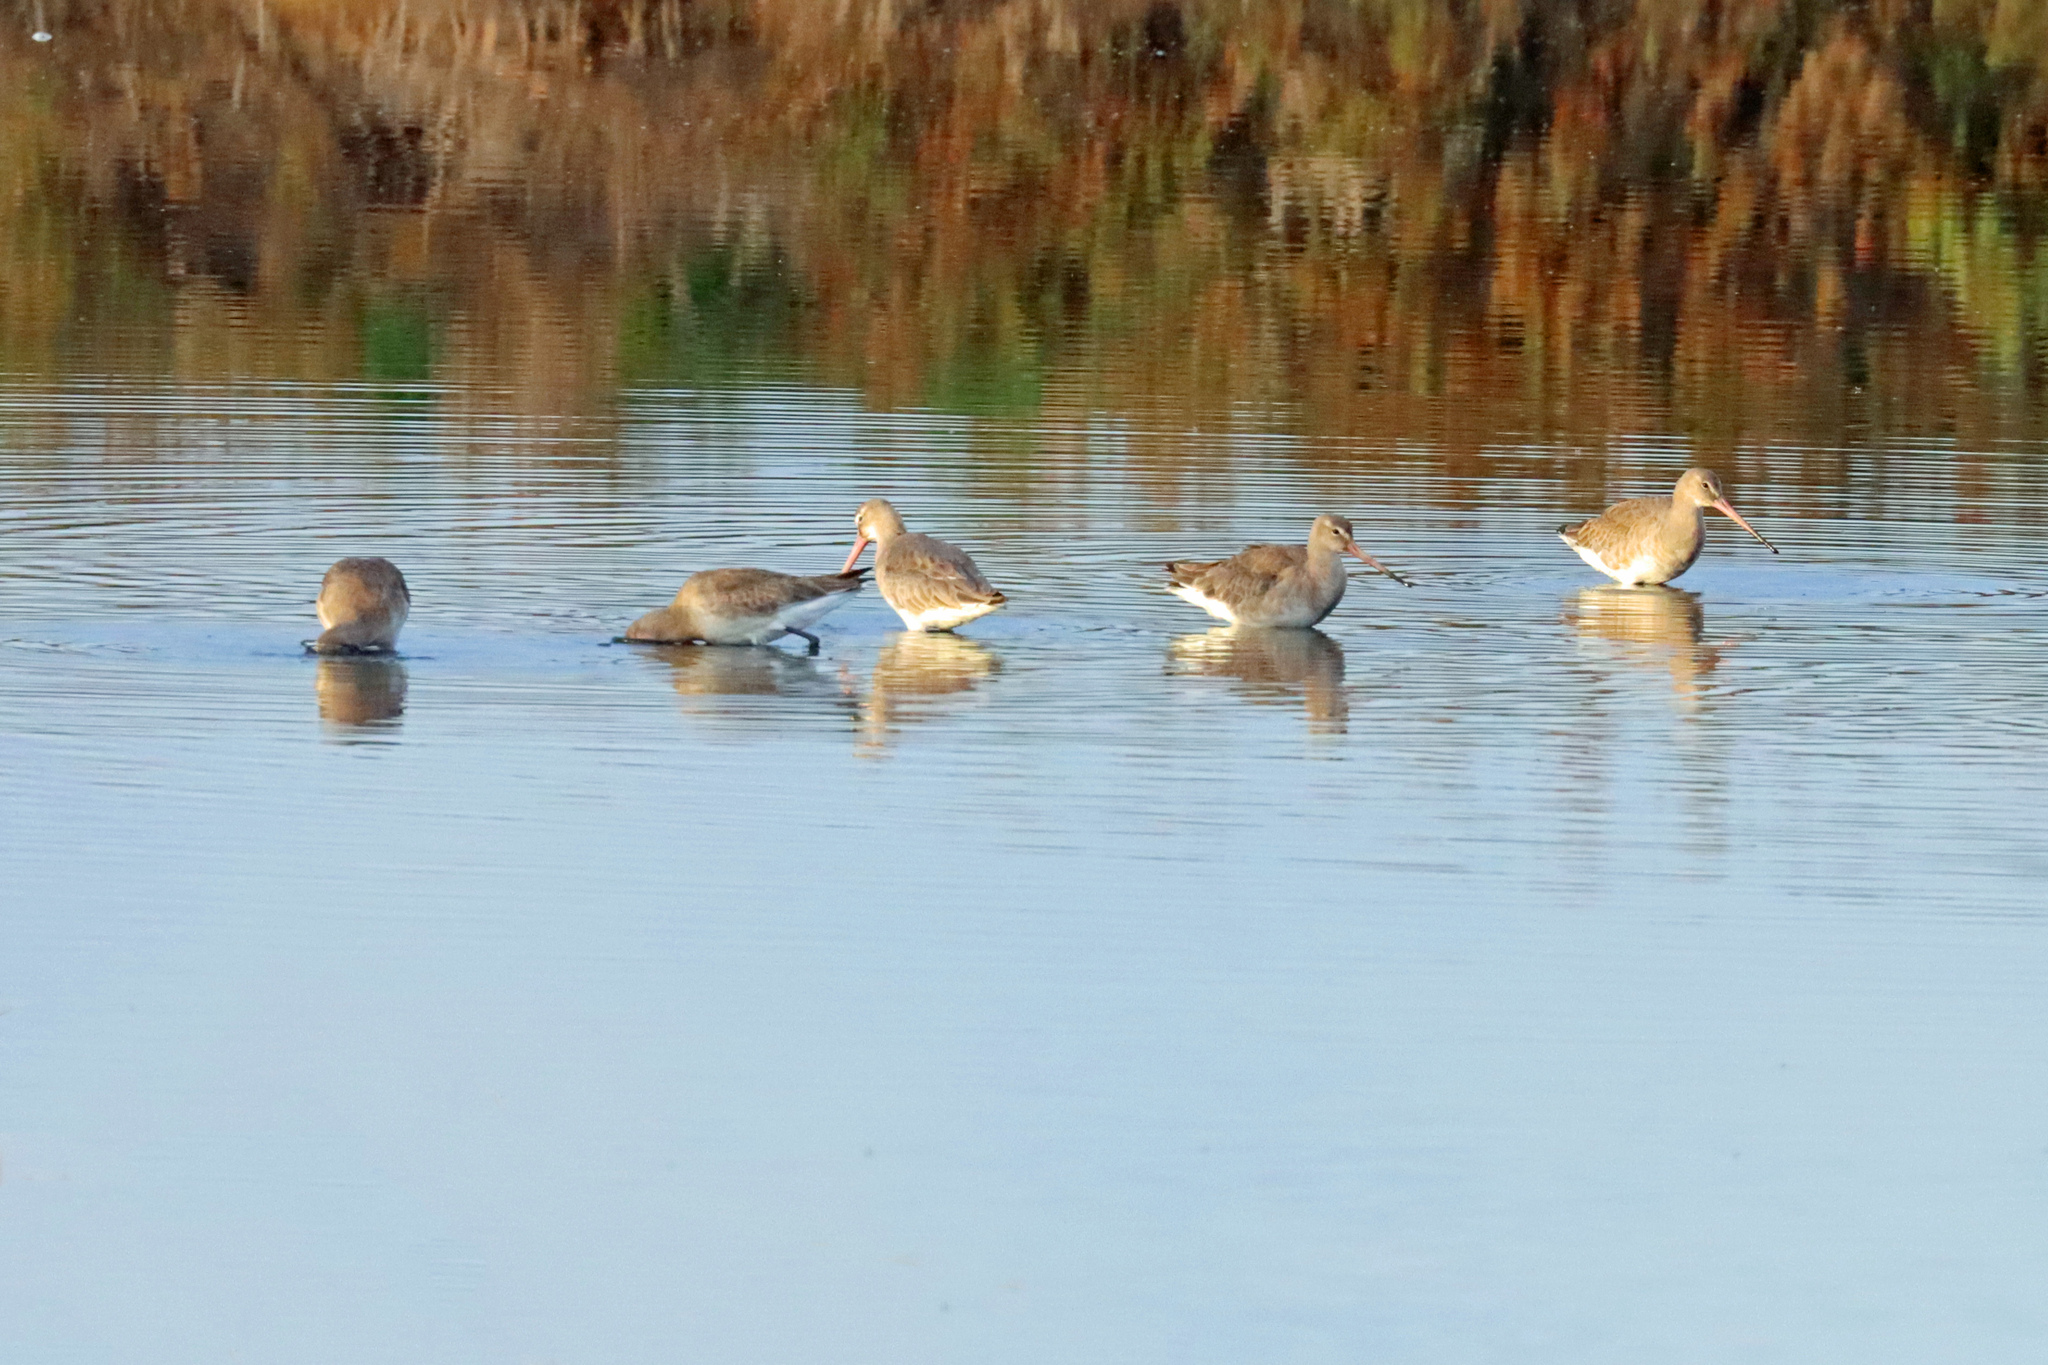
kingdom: Animalia
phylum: Chordata
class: Aves
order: Charadriiformes
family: Scolopacidae
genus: Limosa
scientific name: Limosa limosa
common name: Black-tailed godwit
